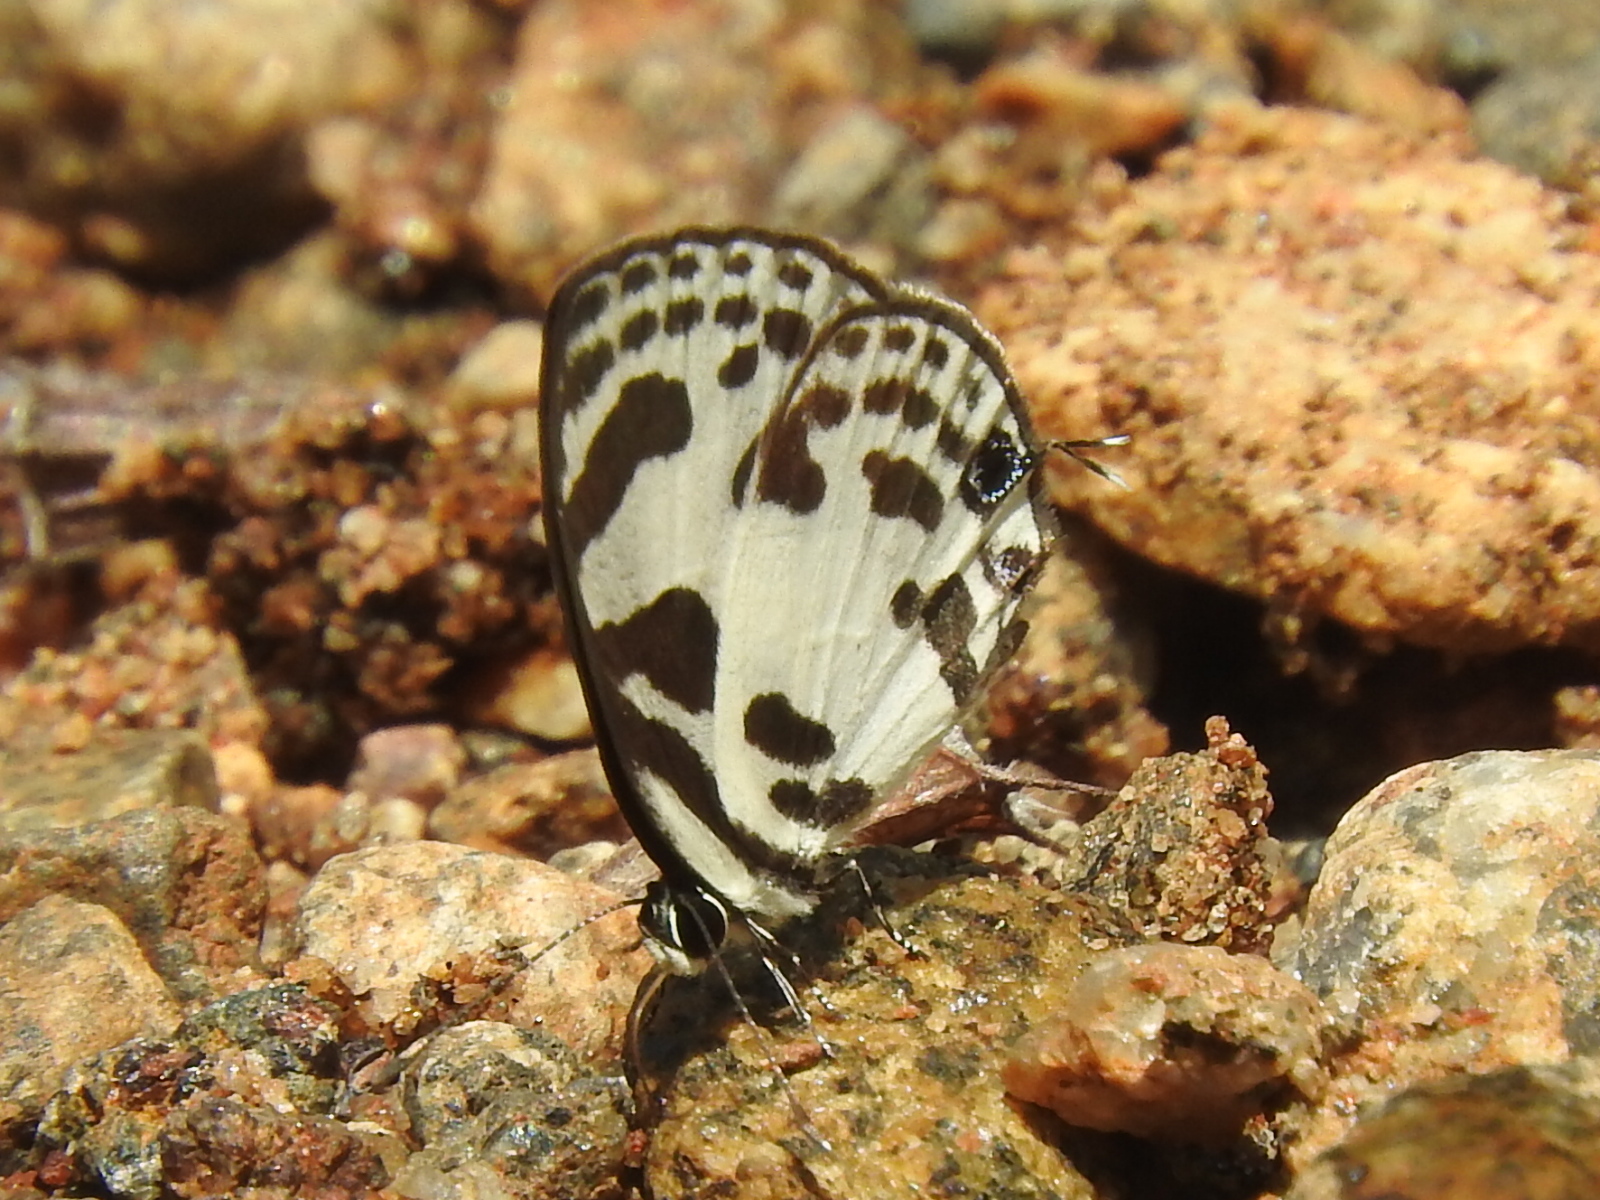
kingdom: Animalia
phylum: Arthropoda
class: Insecta
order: Lepidoptera
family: Lycaenidae
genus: Discolampa
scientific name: Discolampa ethion
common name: Banded blue pierrot
